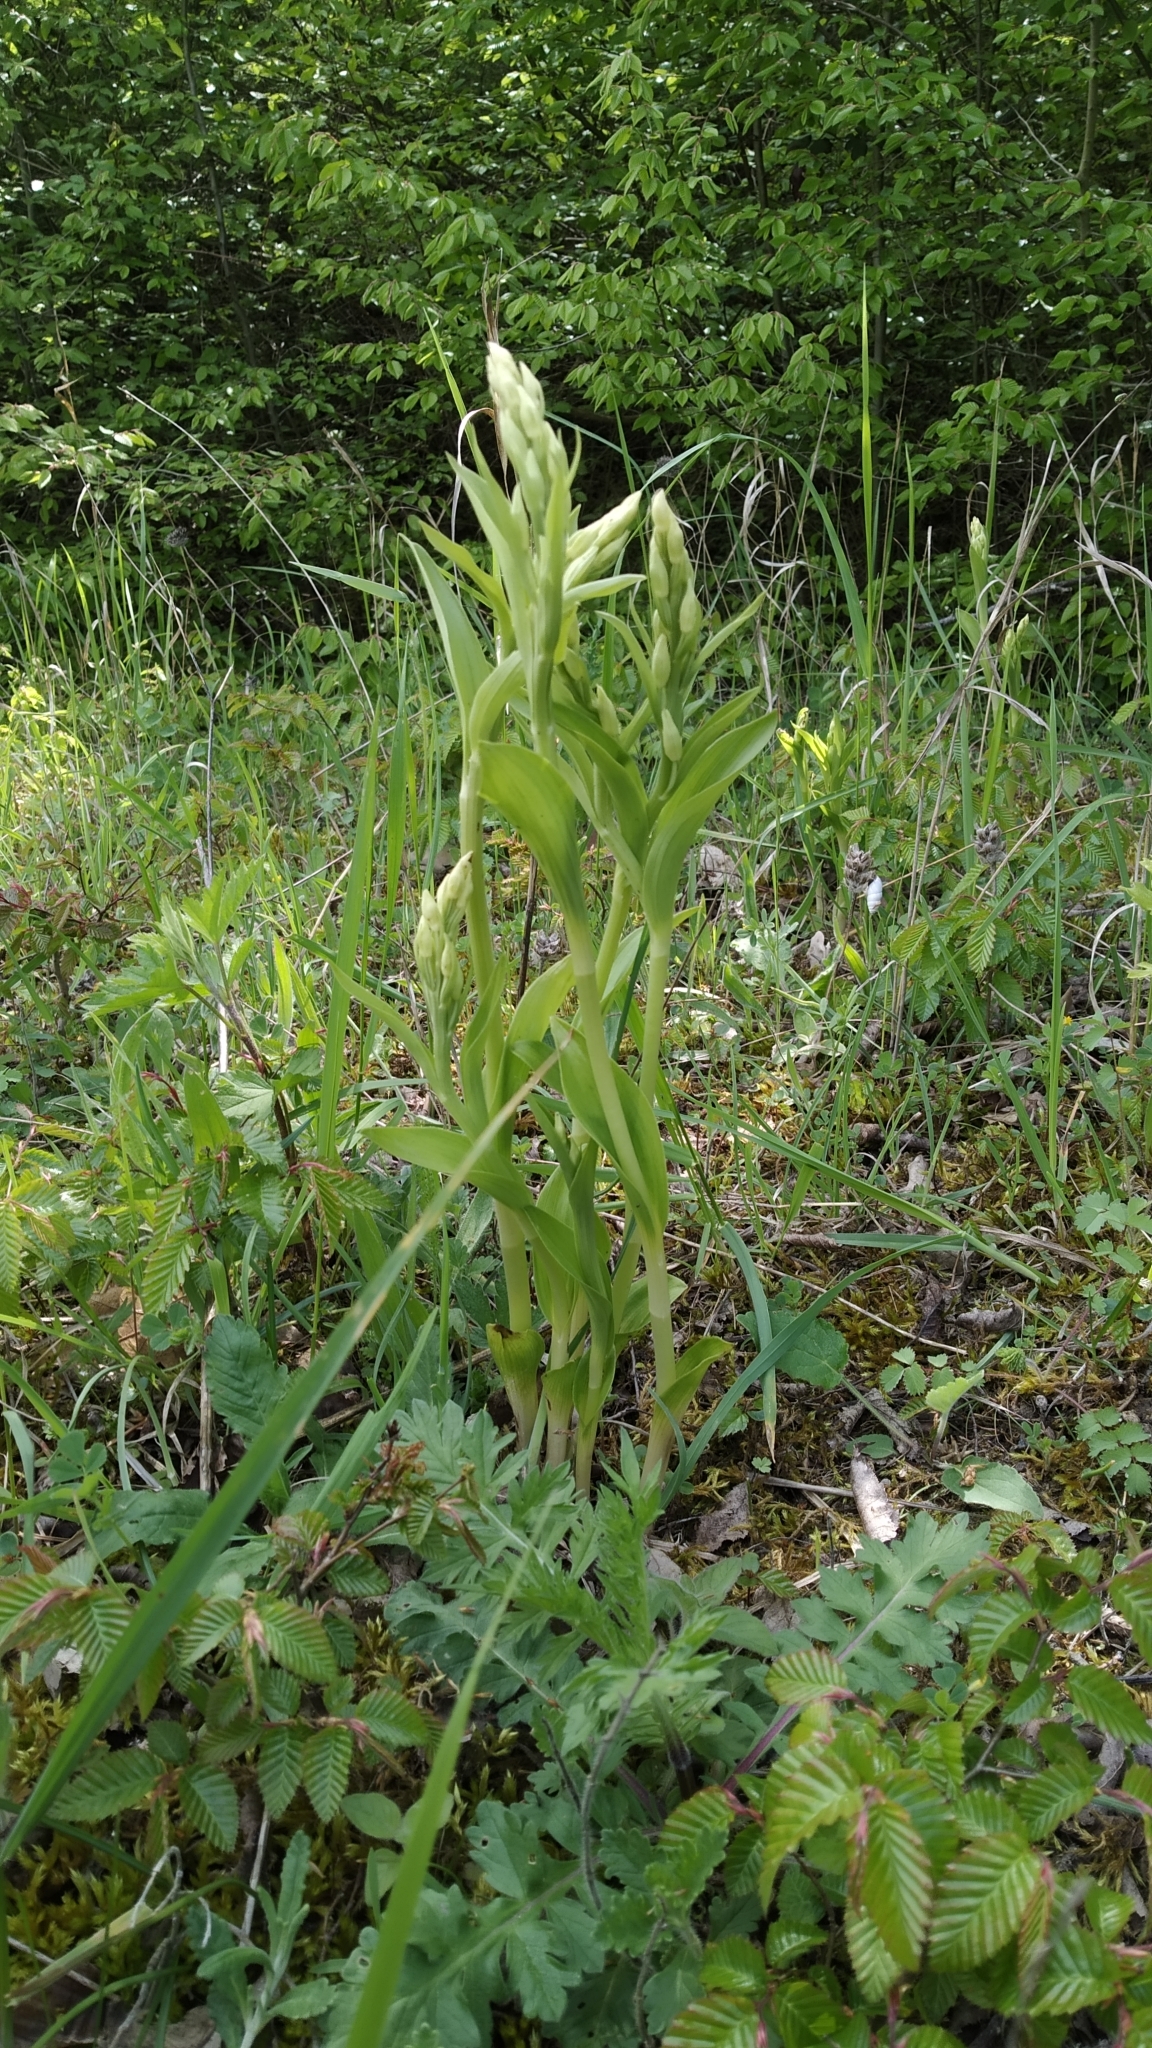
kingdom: Plantae
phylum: Tracheophyta
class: Liliopsida
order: Asparagales
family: Orchidaceae
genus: Cephalanthera
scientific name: Cephalanthera damasonium
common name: White helleborine
